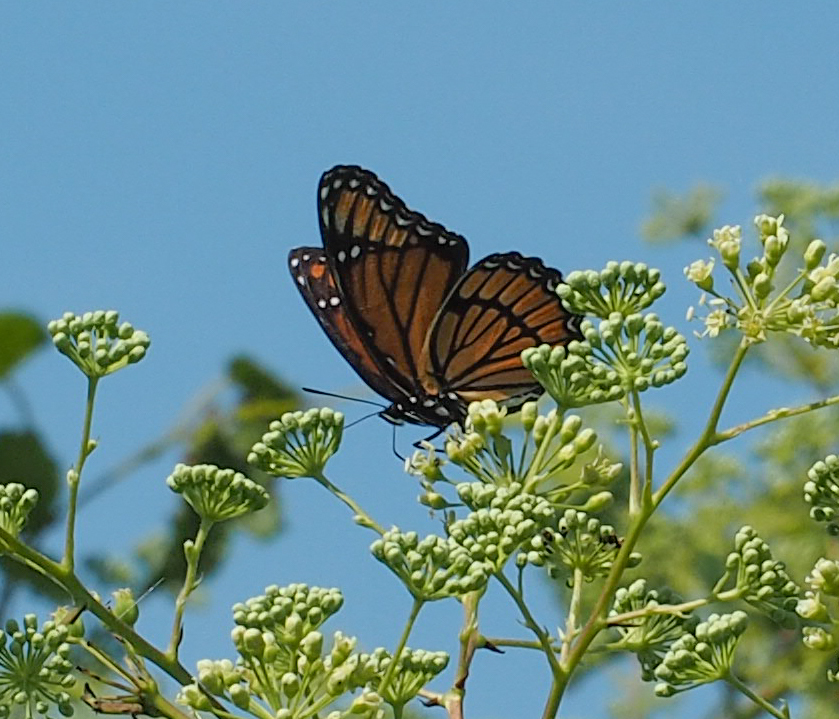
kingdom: Animalia
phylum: Arthropoda
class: Insecta
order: Lepidoptera
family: Nymphalidae
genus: Limenitis
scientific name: Limenitis archippus
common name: Viceroy
